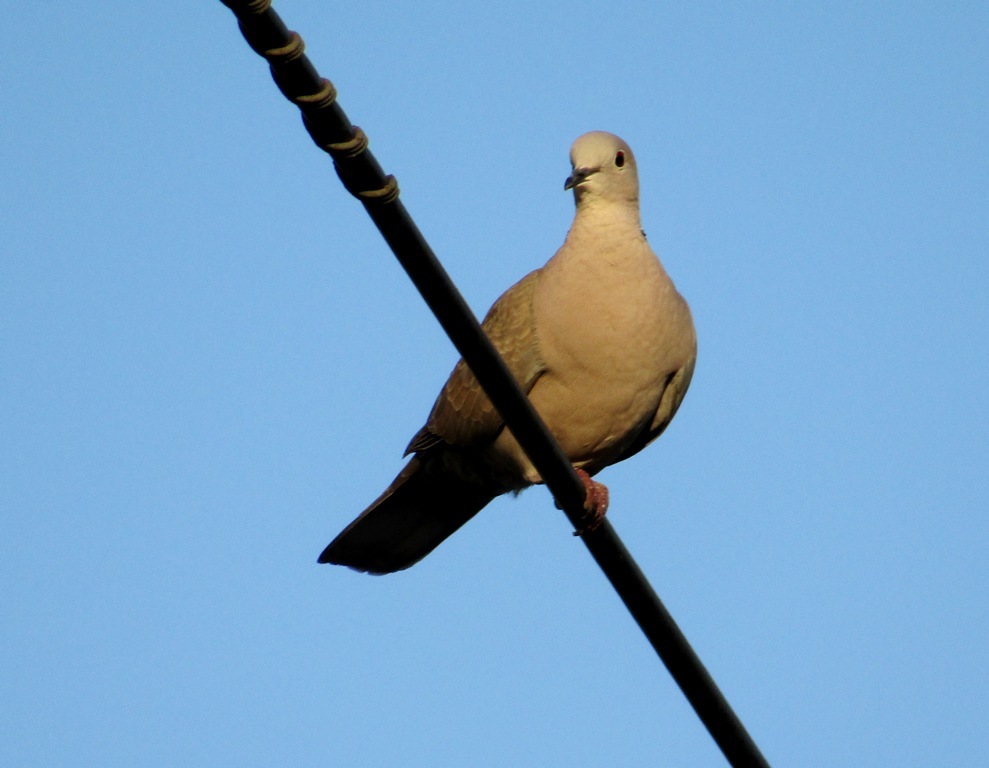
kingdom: Animalia
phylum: Chordata
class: Aves
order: Columbiformes
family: Columbidae
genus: Streptopelia
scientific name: Streptopelia decaocto
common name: Eurasian collared dove
